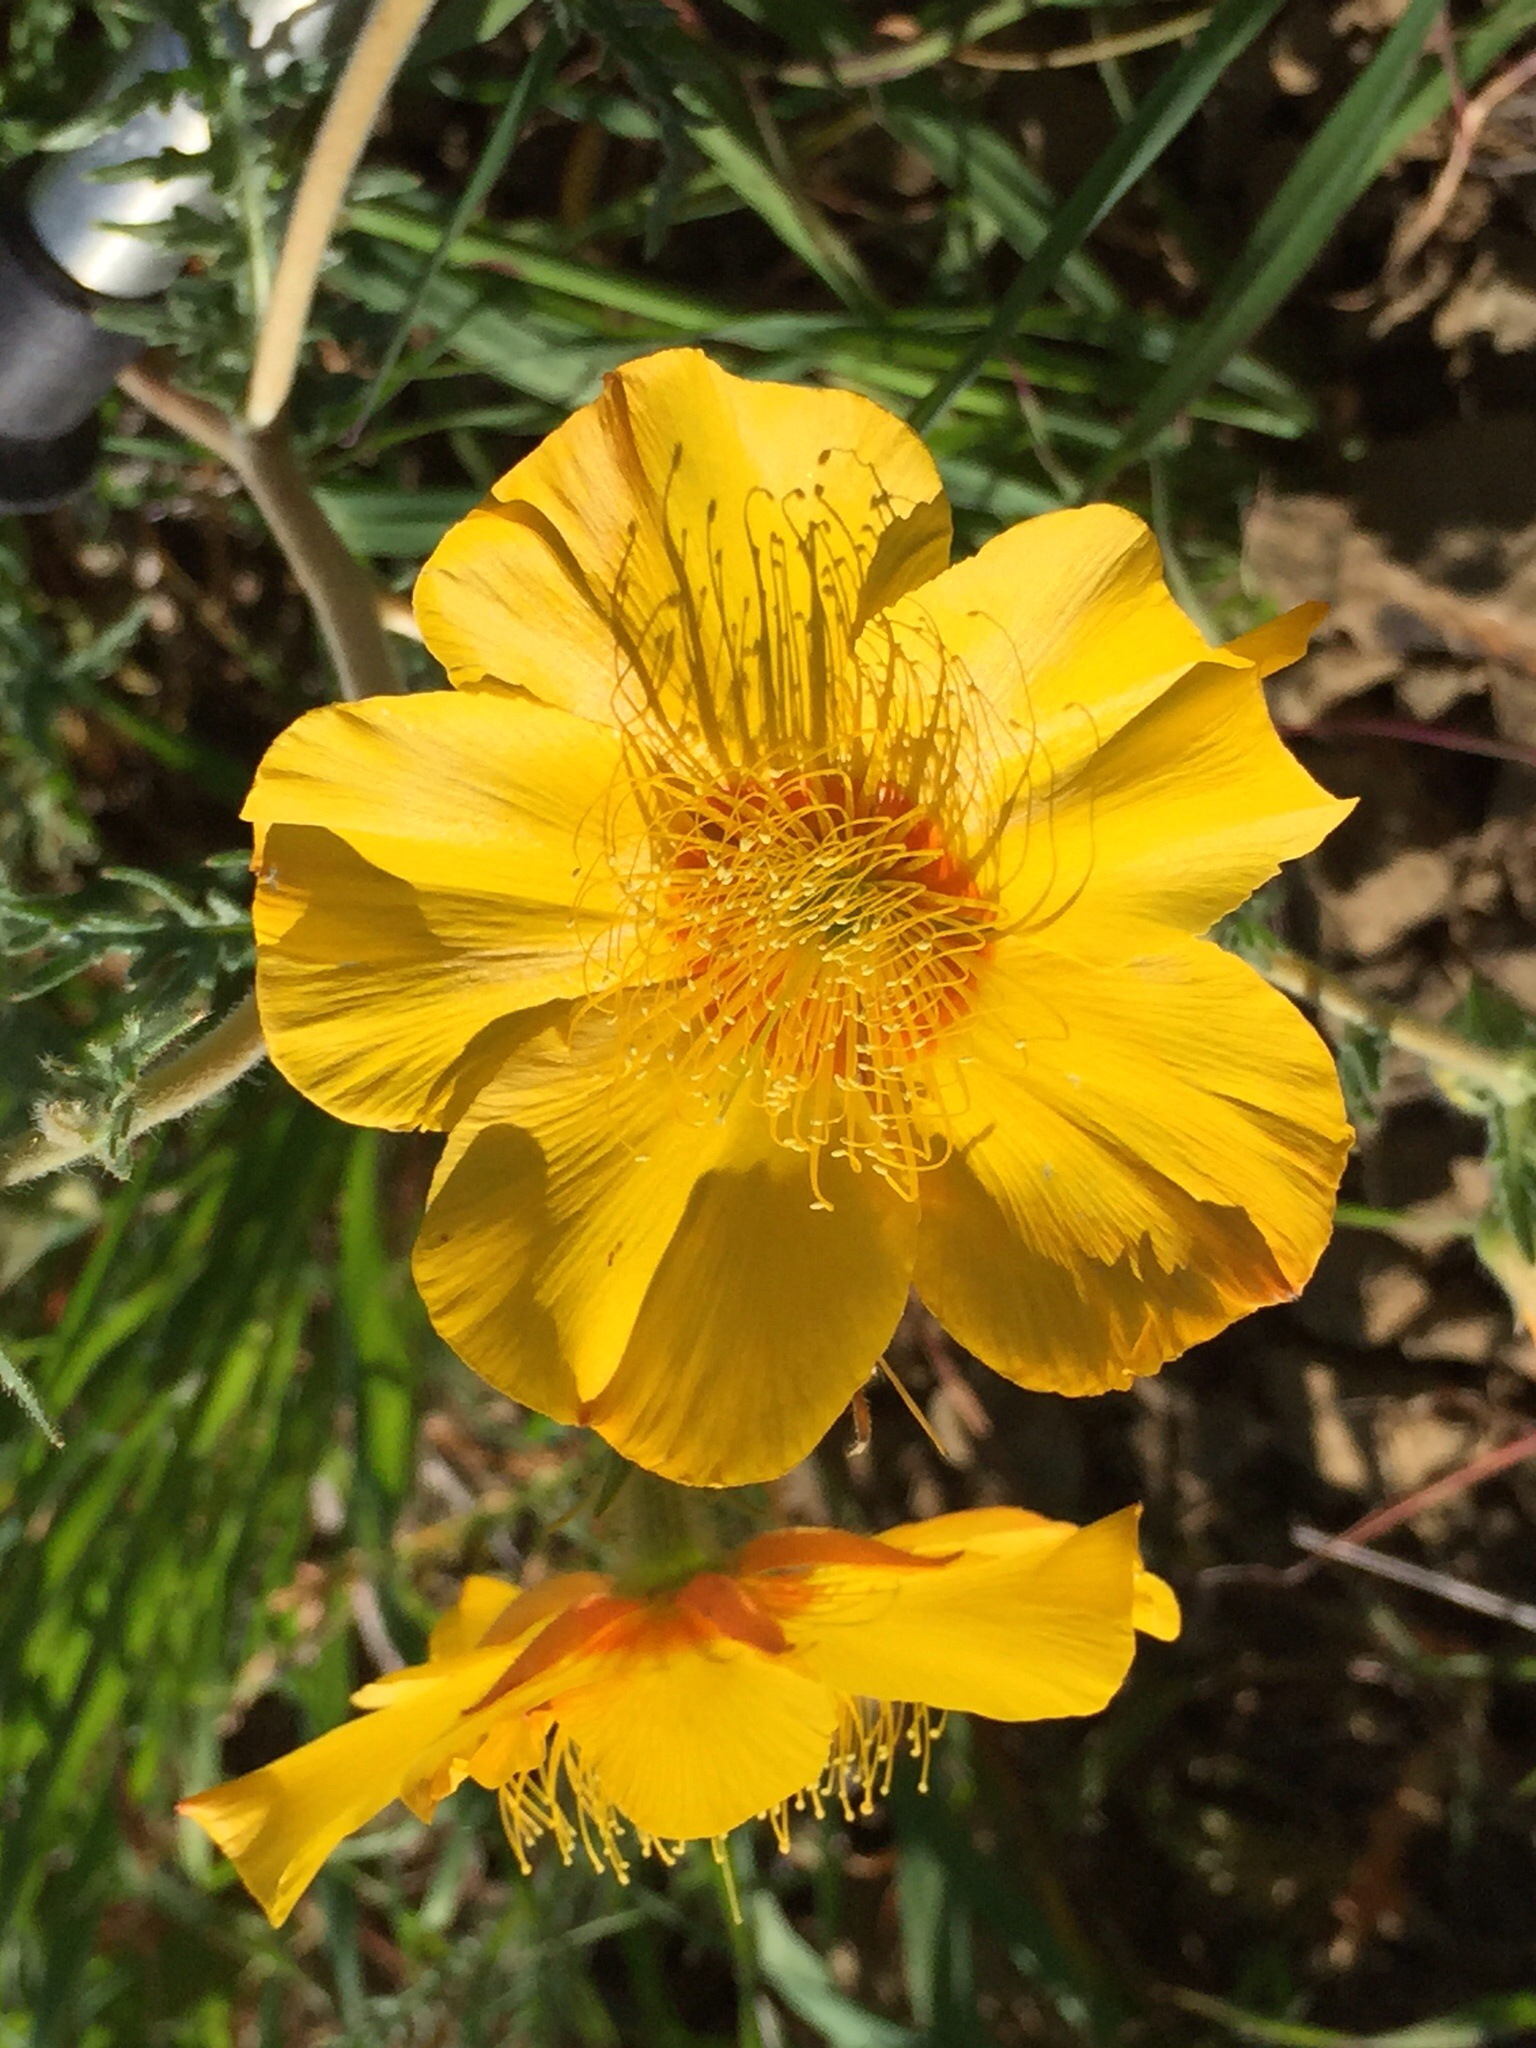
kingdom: Plantae
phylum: Tracheophyta
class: Magnoliopsida
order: Cornales
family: Loasaceae
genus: Mentzelia
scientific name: Mentzelia lindleyi
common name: Golden bartonia
